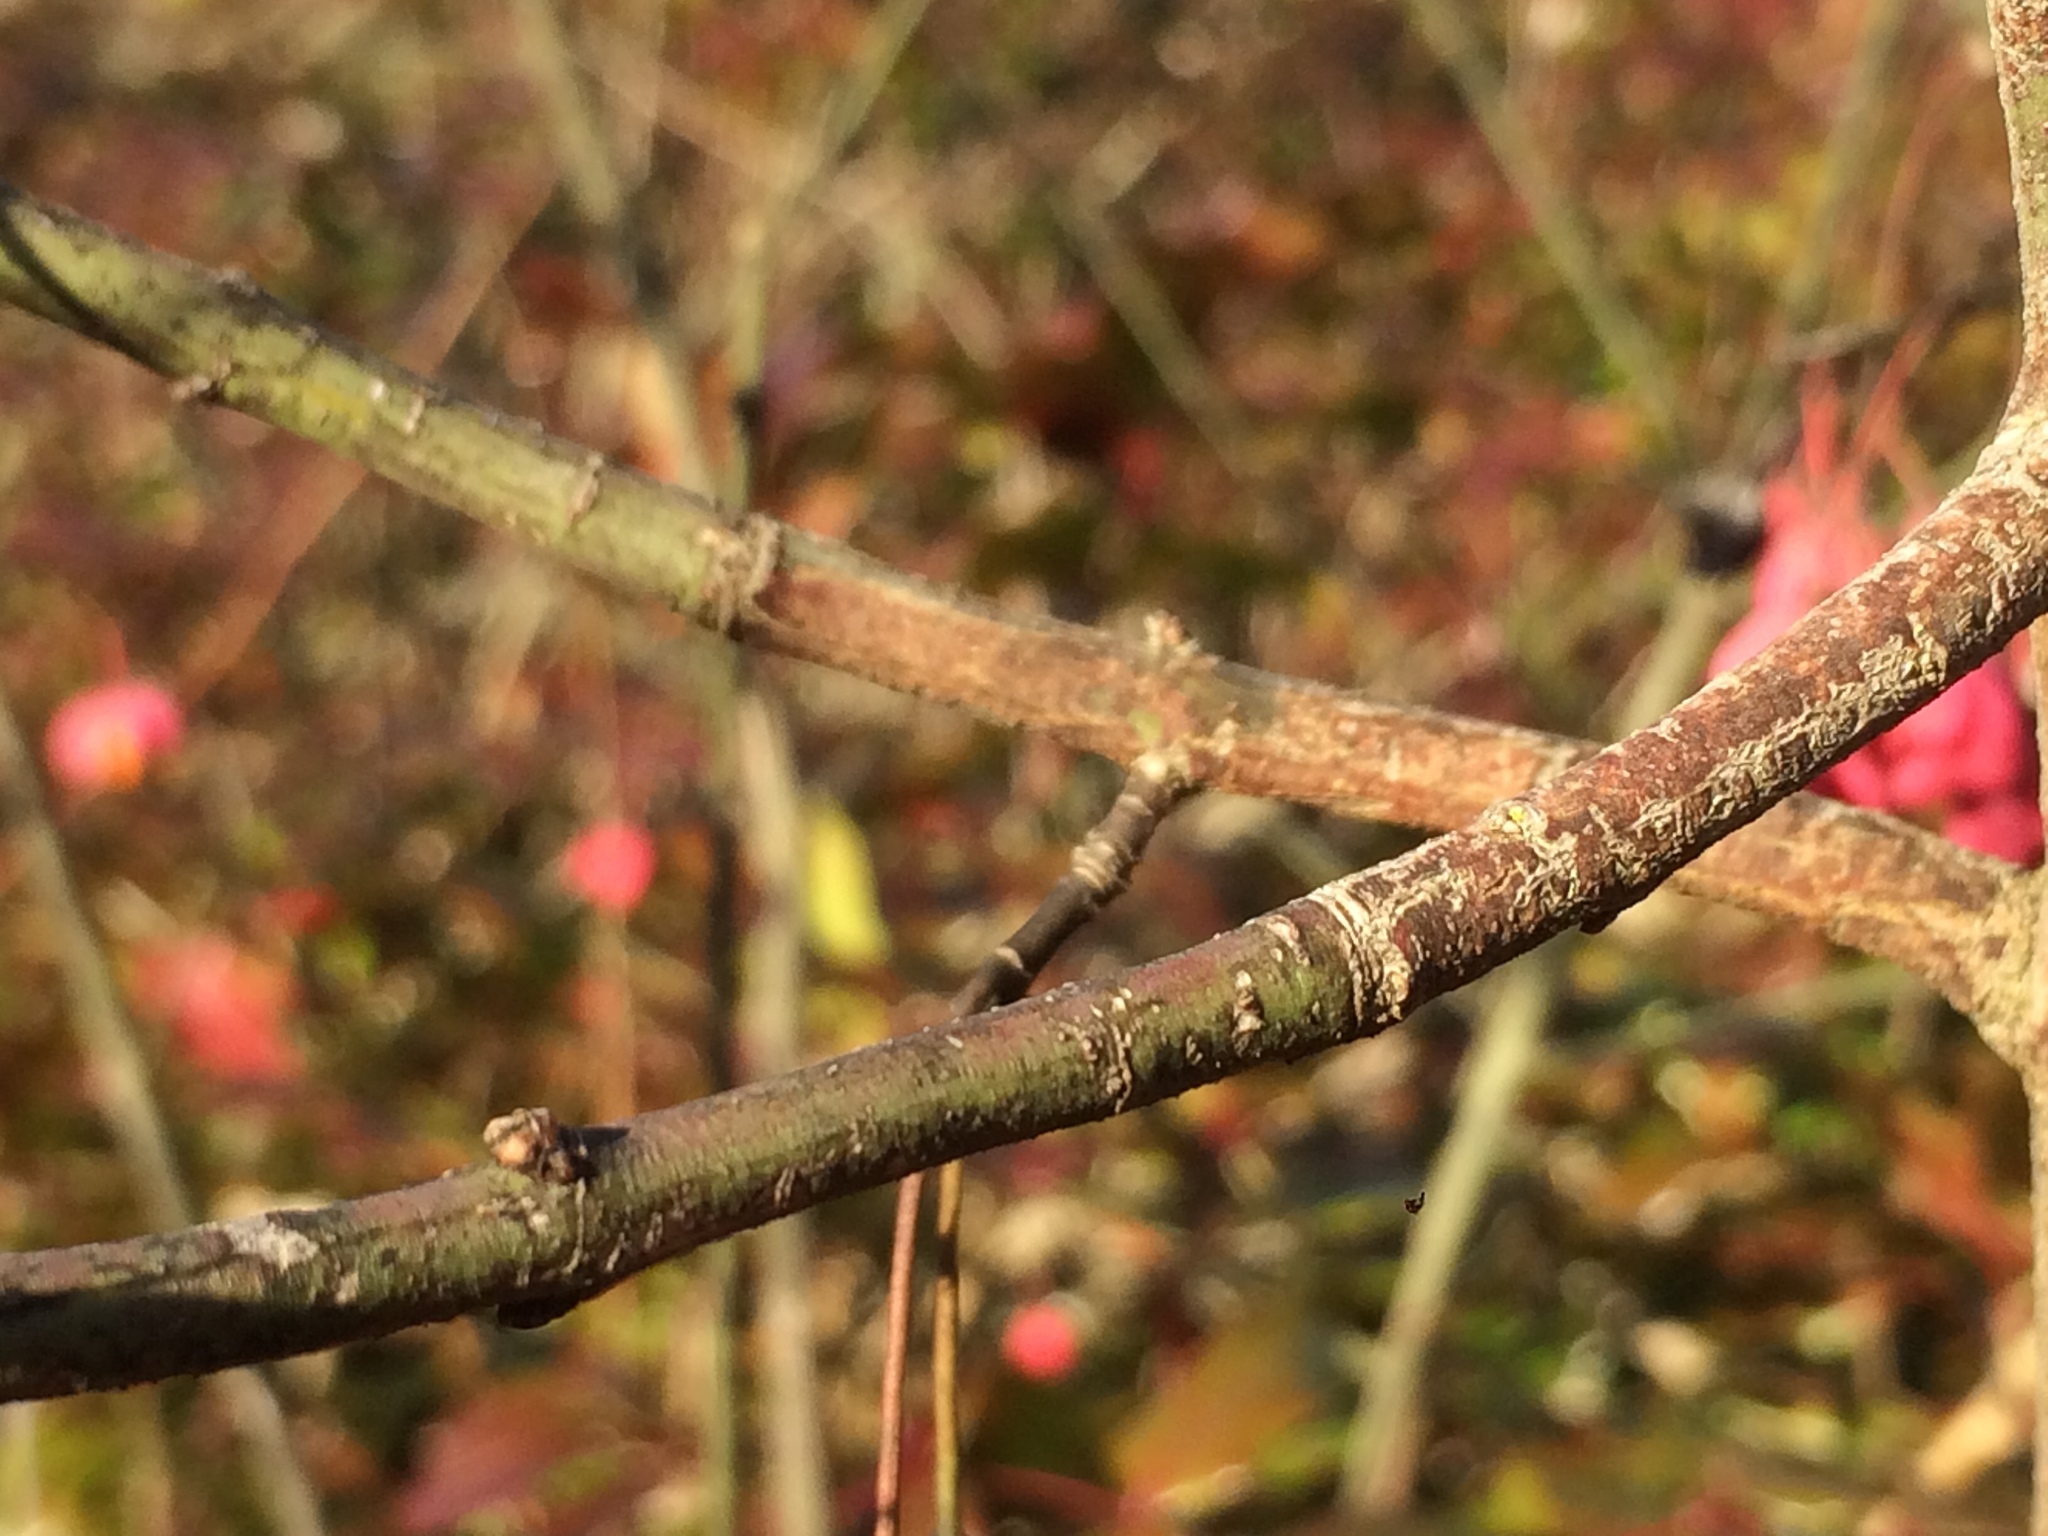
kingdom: Plantae
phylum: Tracheophyta
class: Magnoliopsida
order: Celastrales
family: Celastraceae
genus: Euonymus
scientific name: Euonymus europaeus
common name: Spindle
